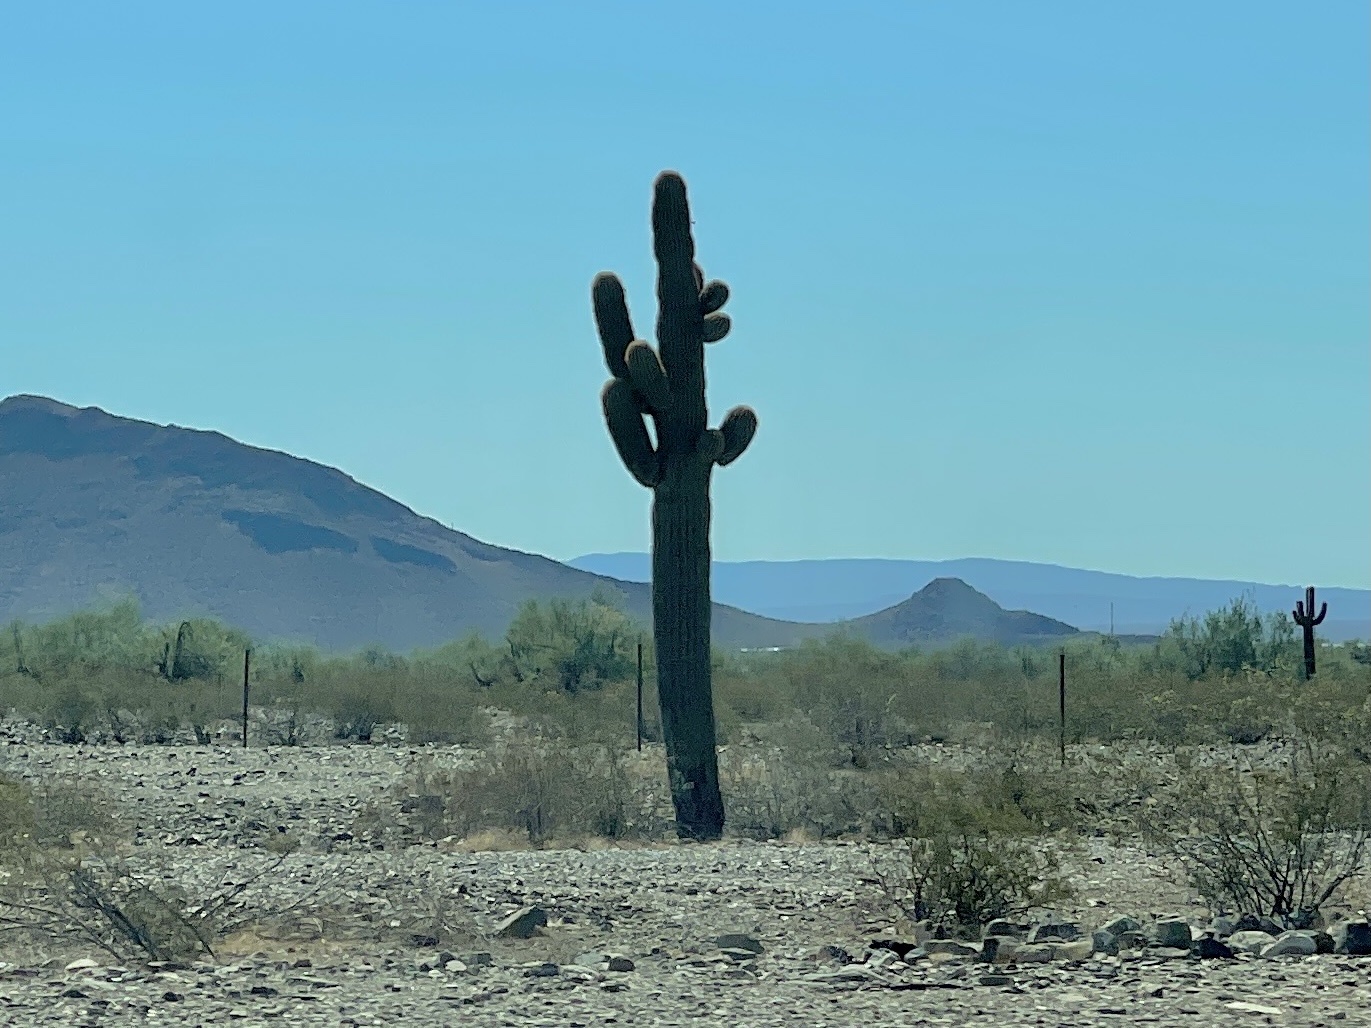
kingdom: Plantae
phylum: Tracheophyta
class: Magnoliopsida
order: Caryophyllales
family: Cactaceae
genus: Carnegiea
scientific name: Carnegiea gigantea
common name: Saguaro
